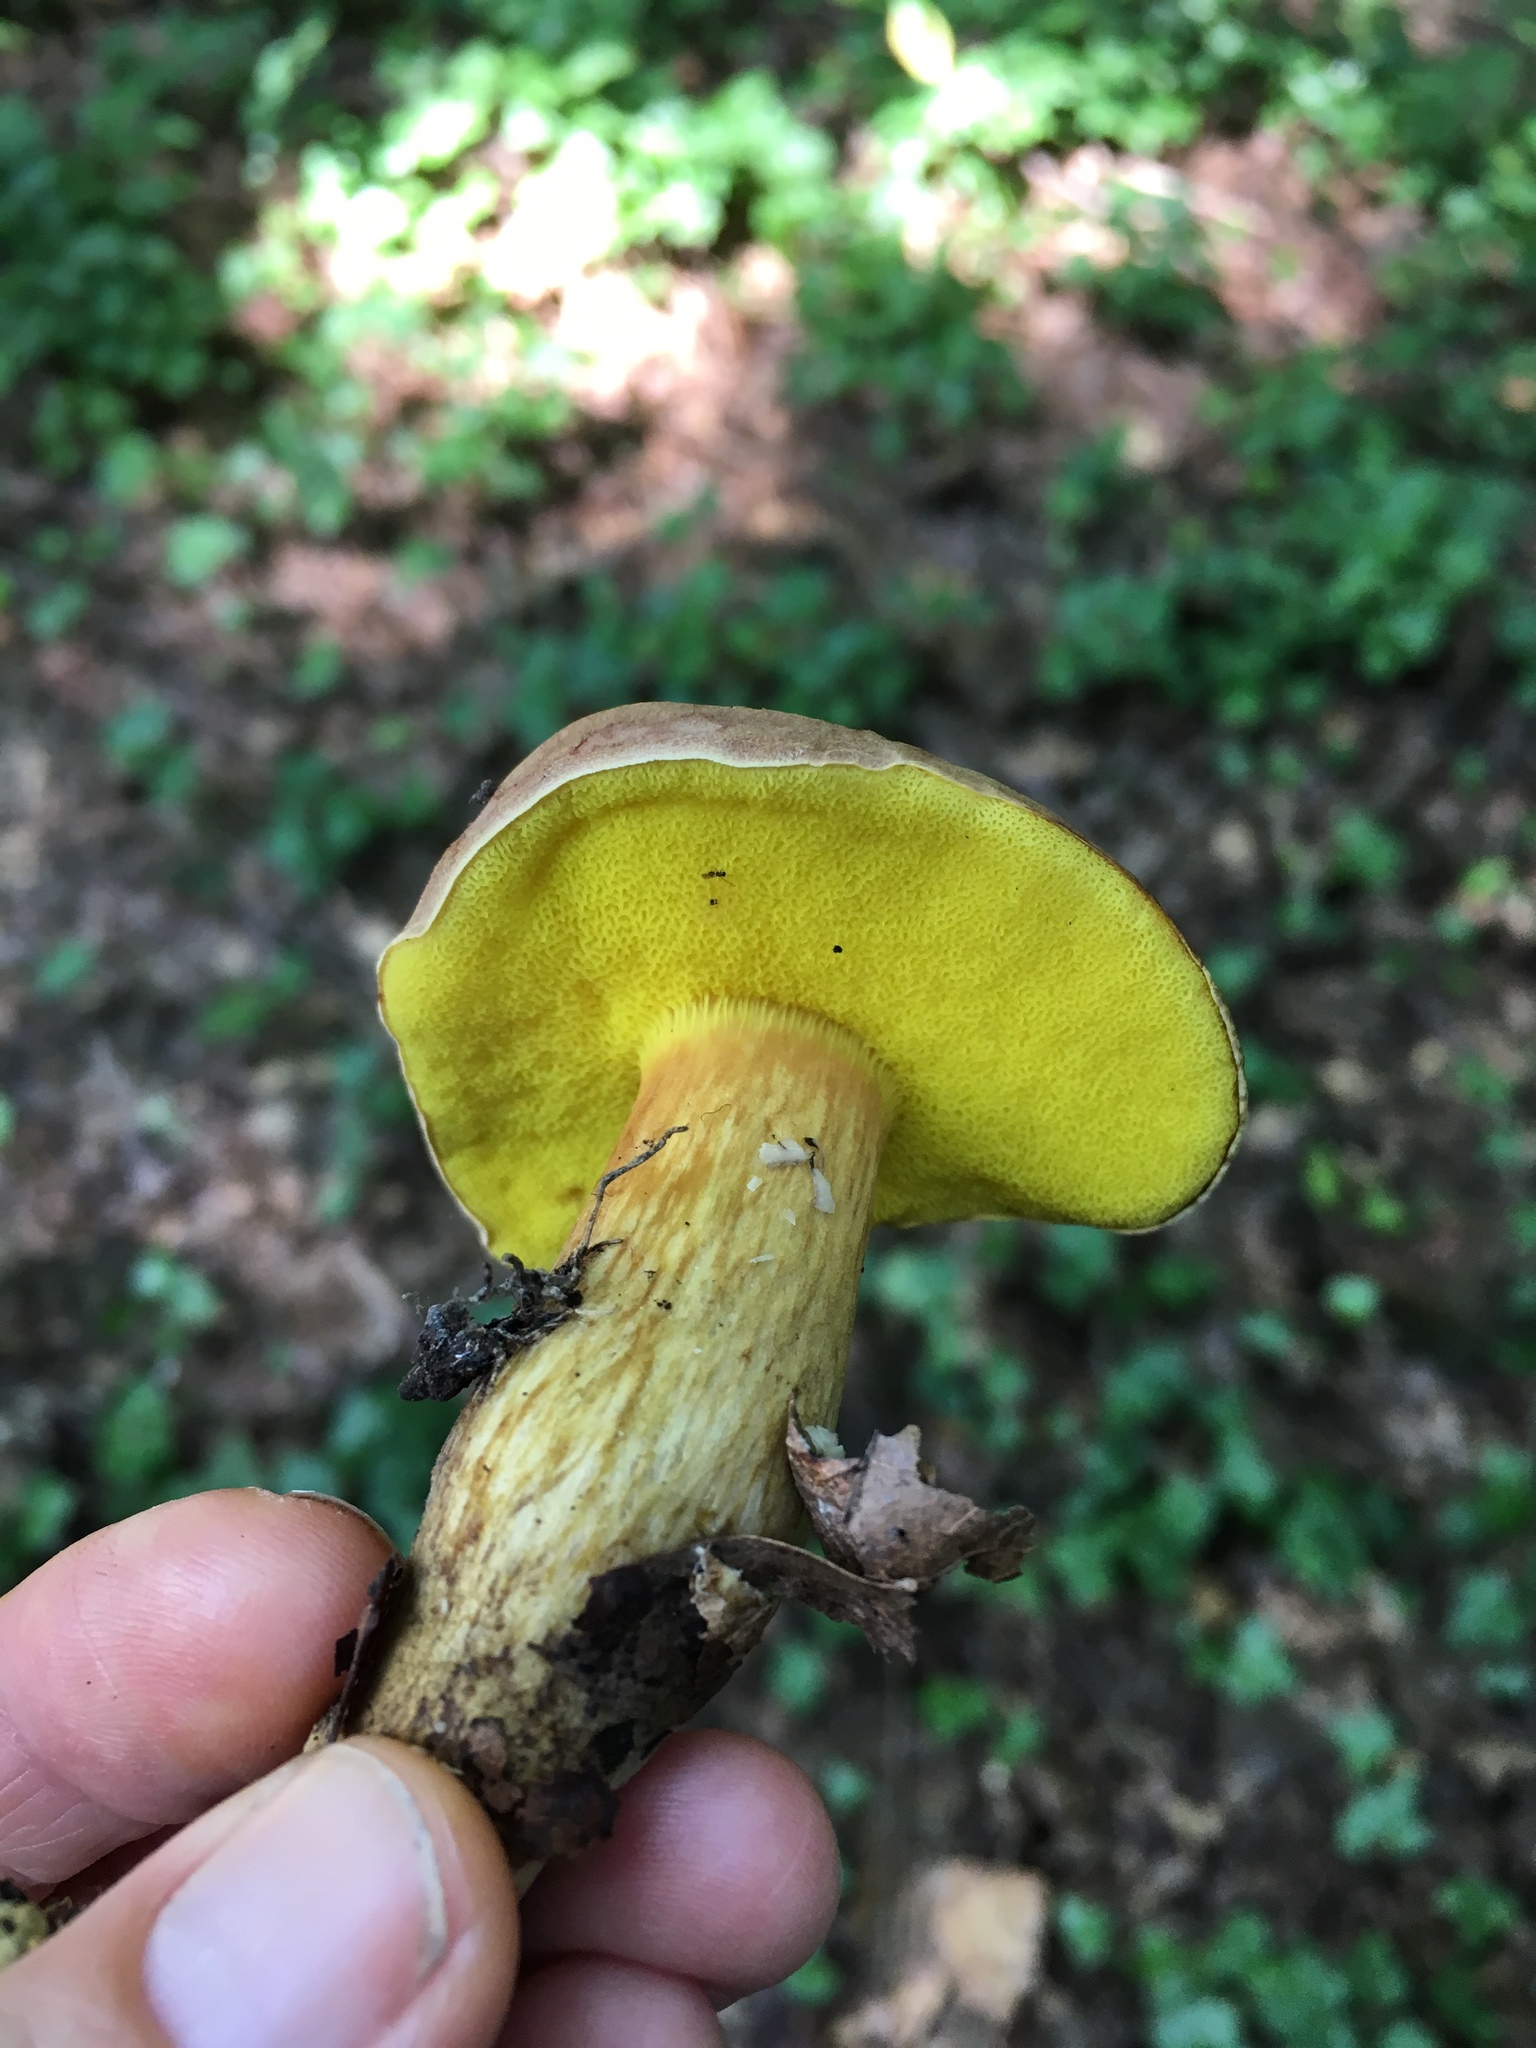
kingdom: Fungi
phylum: Basidiomycota
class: Agaricomycetes
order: Boletales
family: Boletaceae
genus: Aureoboletus
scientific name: Aureoboletus innixus
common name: Clustered brown bolete
